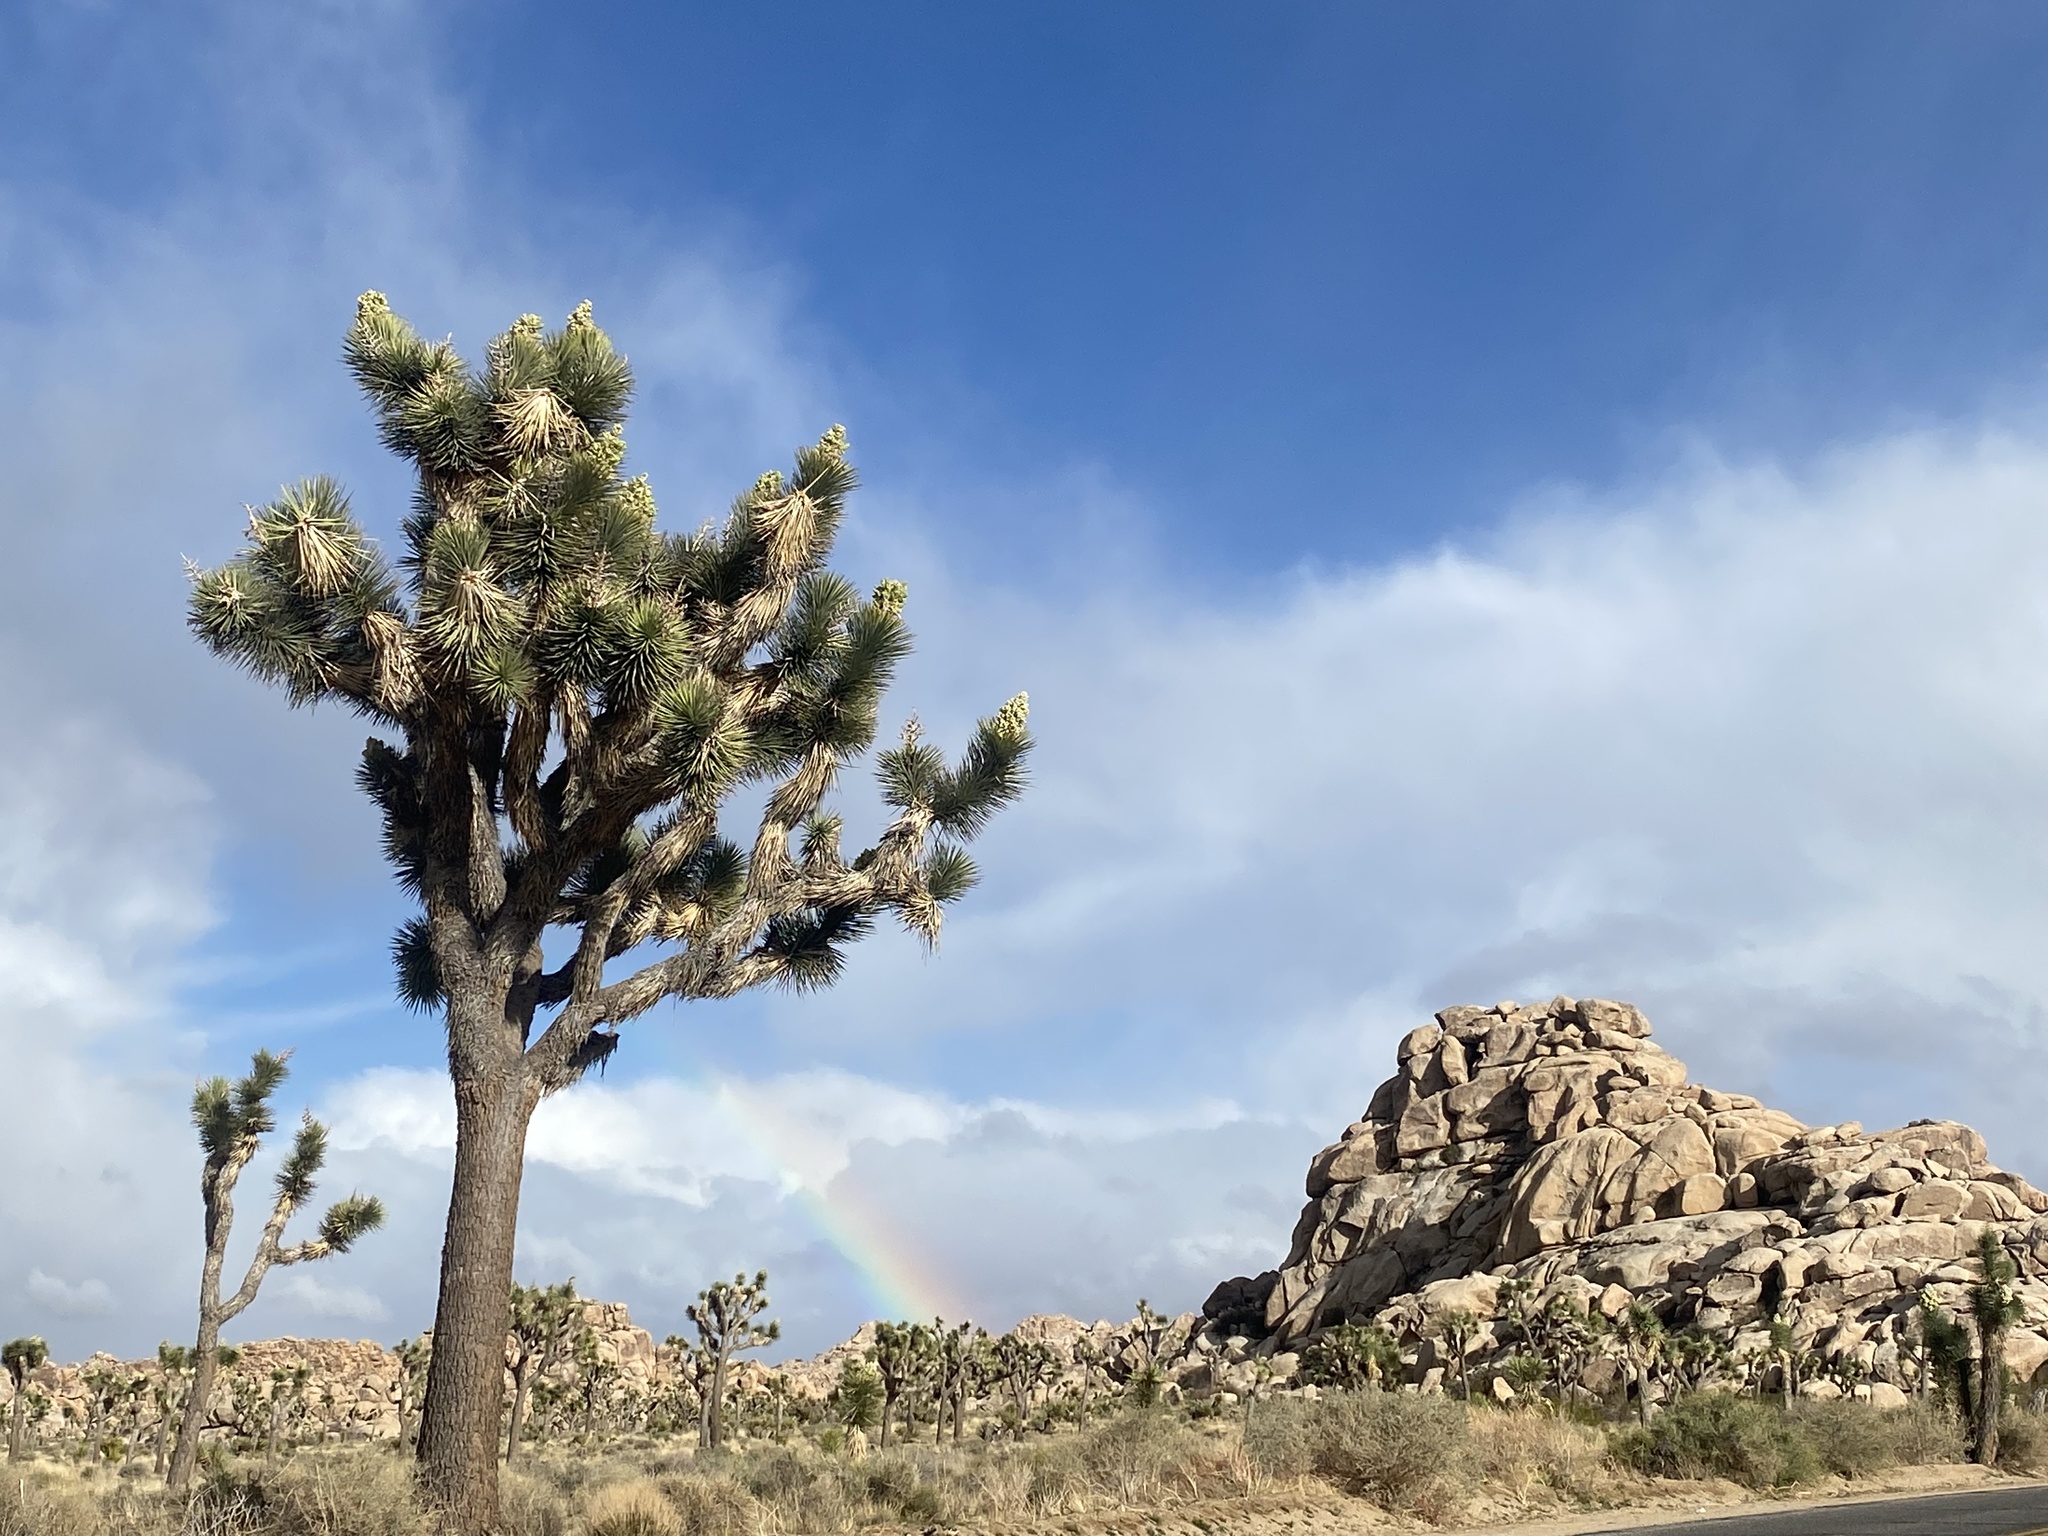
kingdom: Plantae
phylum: Tracheophyta
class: Liliopsida
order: Asparagales
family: Asparagaceae
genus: Yucca
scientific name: Yucca brevifolia
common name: Joshua tree
